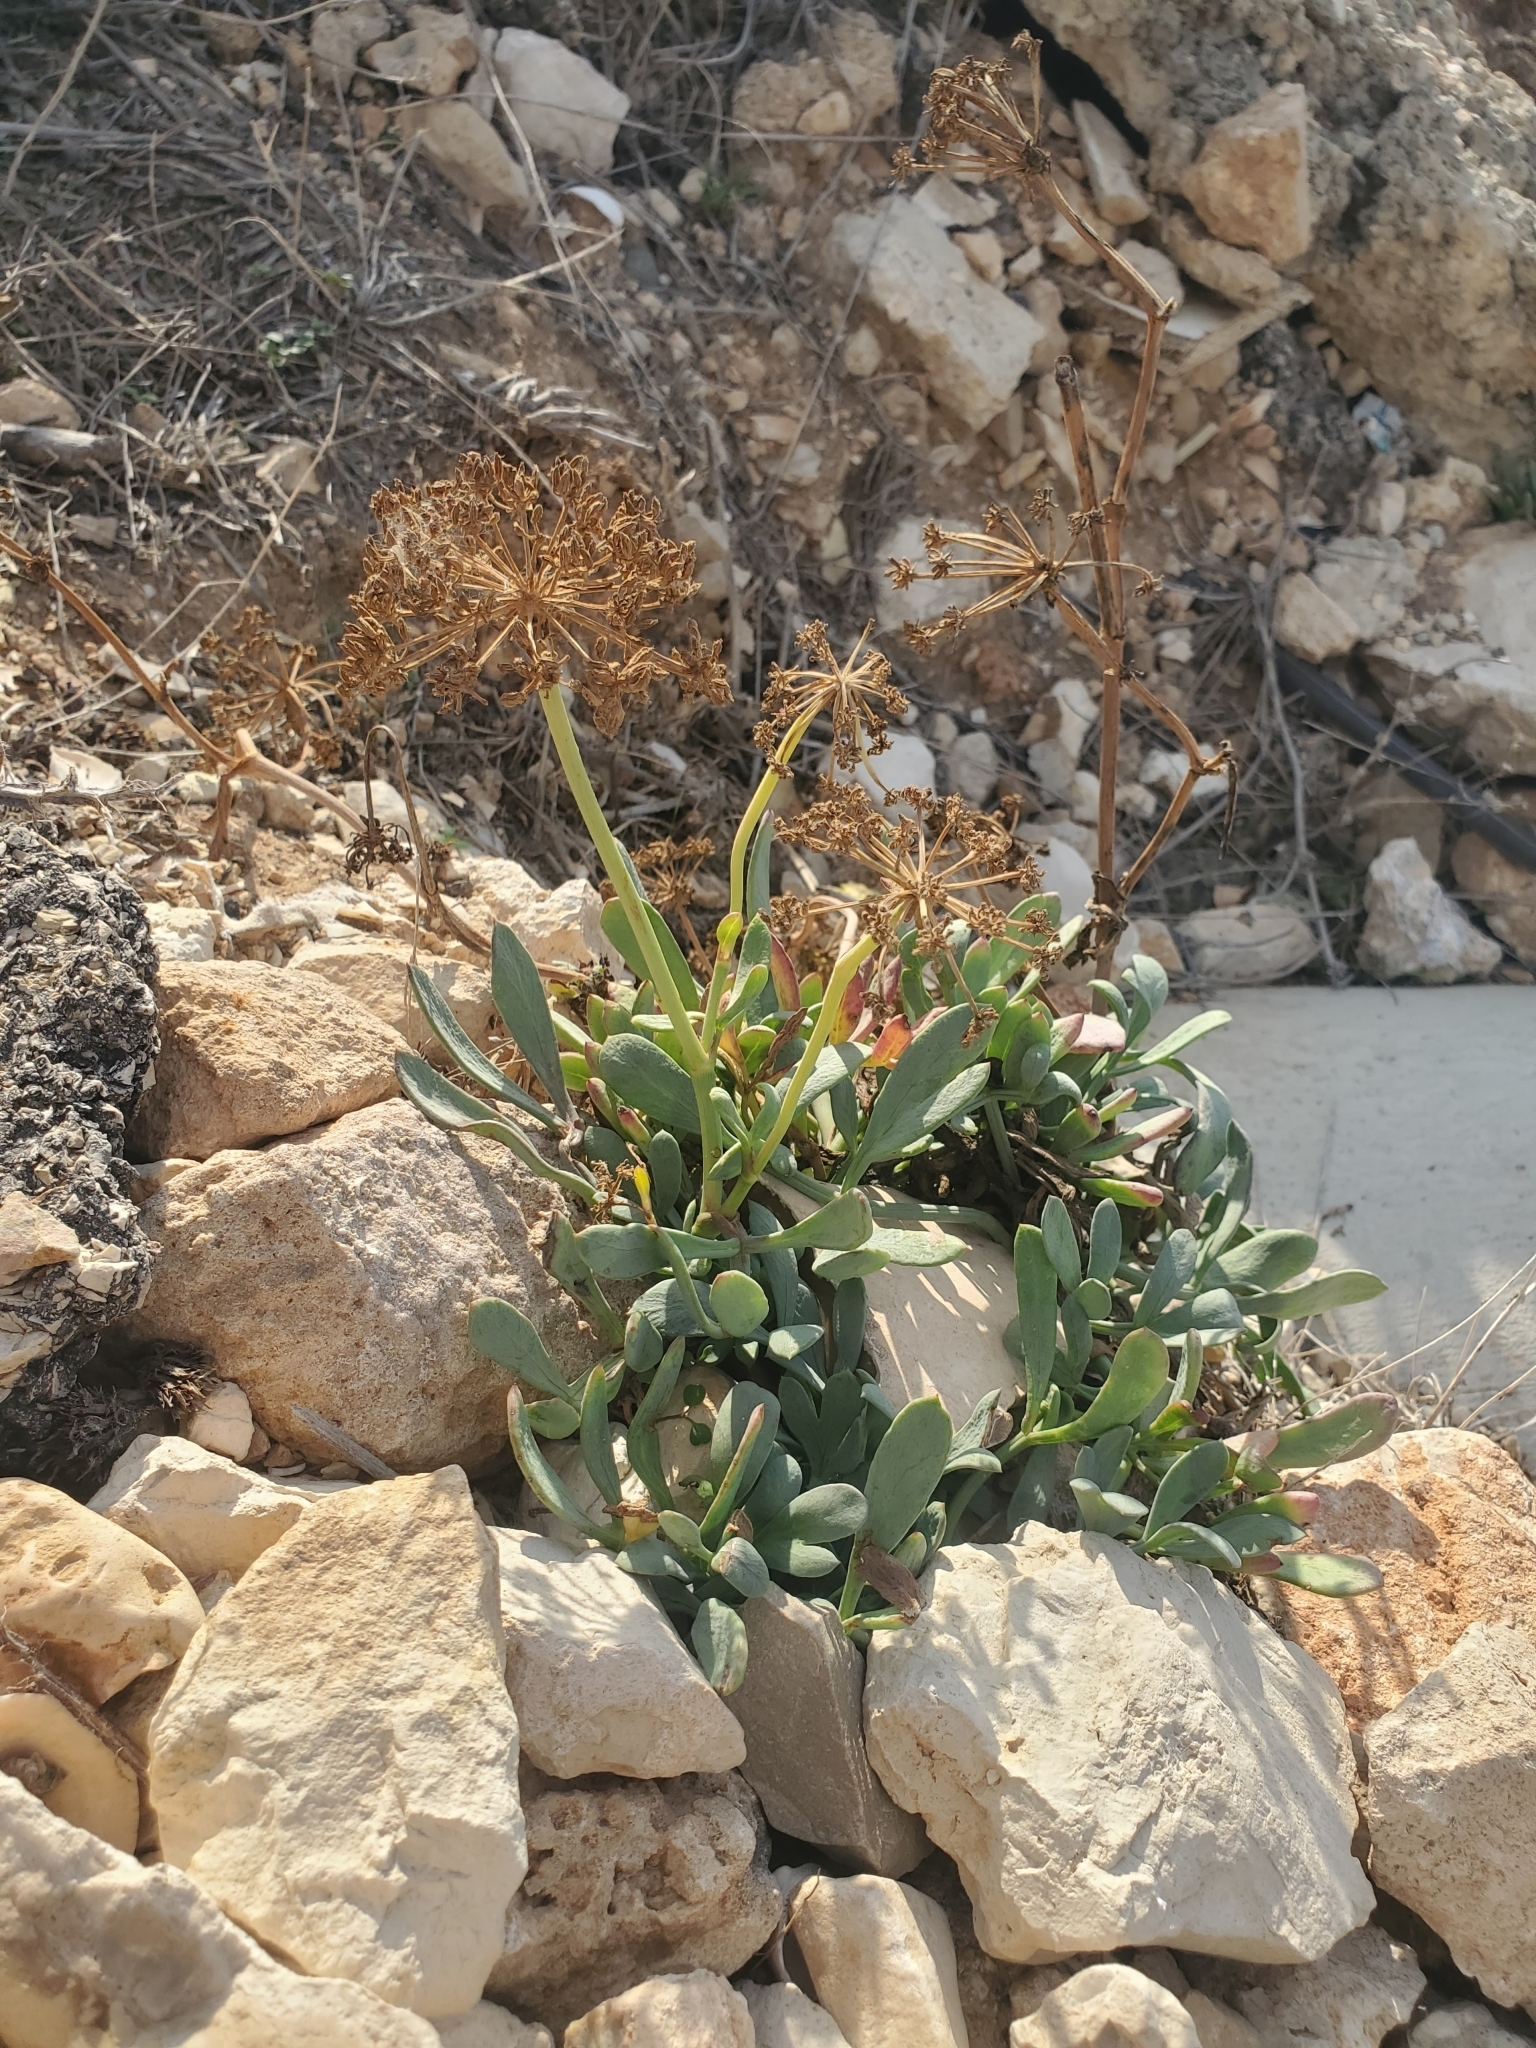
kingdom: Plantae
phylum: Tracheophyta
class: Magnoliopsida
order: Apiales
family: Apiaceae
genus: Crithmum
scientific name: Crithmum maritimum
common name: Rock samphire
